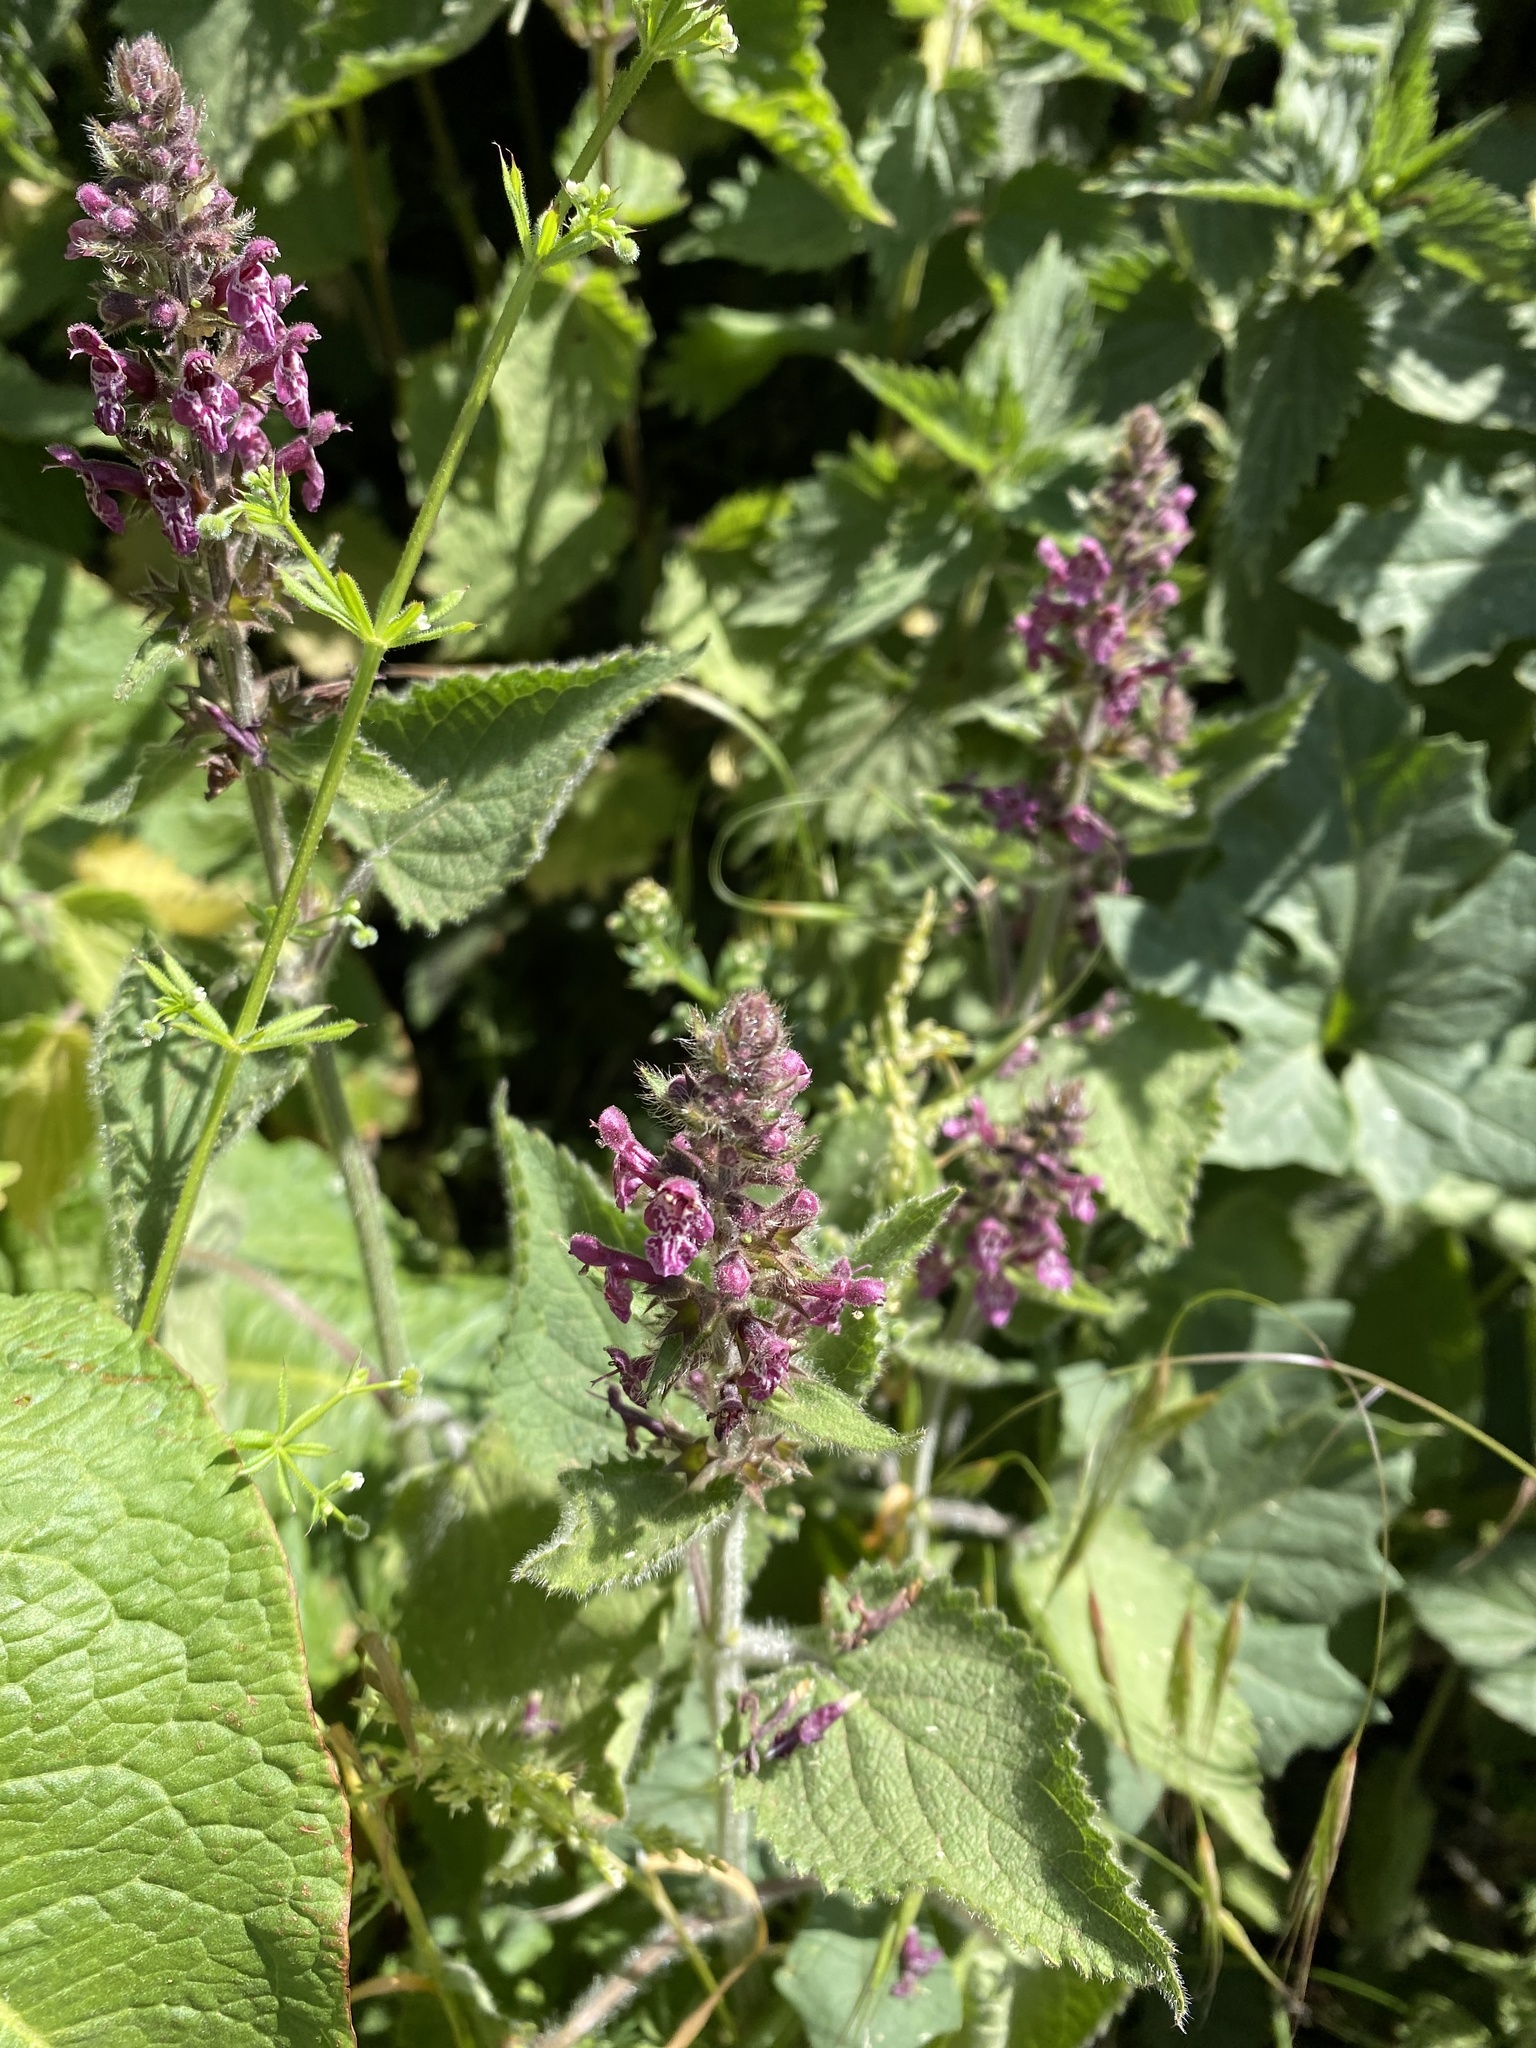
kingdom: Plantae
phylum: Tracheophyta
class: Magnoliopsida
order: Lamiales
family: Lamiaceae
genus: Stachys
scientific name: Stachys sylvatica
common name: Hedge woundwort
